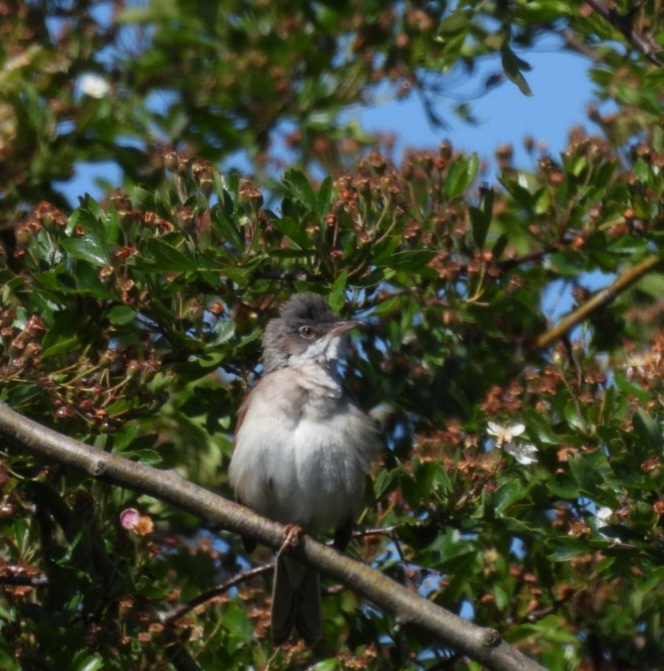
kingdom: Animalia
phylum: Chordata
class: Aves
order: Passeriformes
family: Sylviidae
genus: Sylvia
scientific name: Sylvia communis
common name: Common whitethroat
